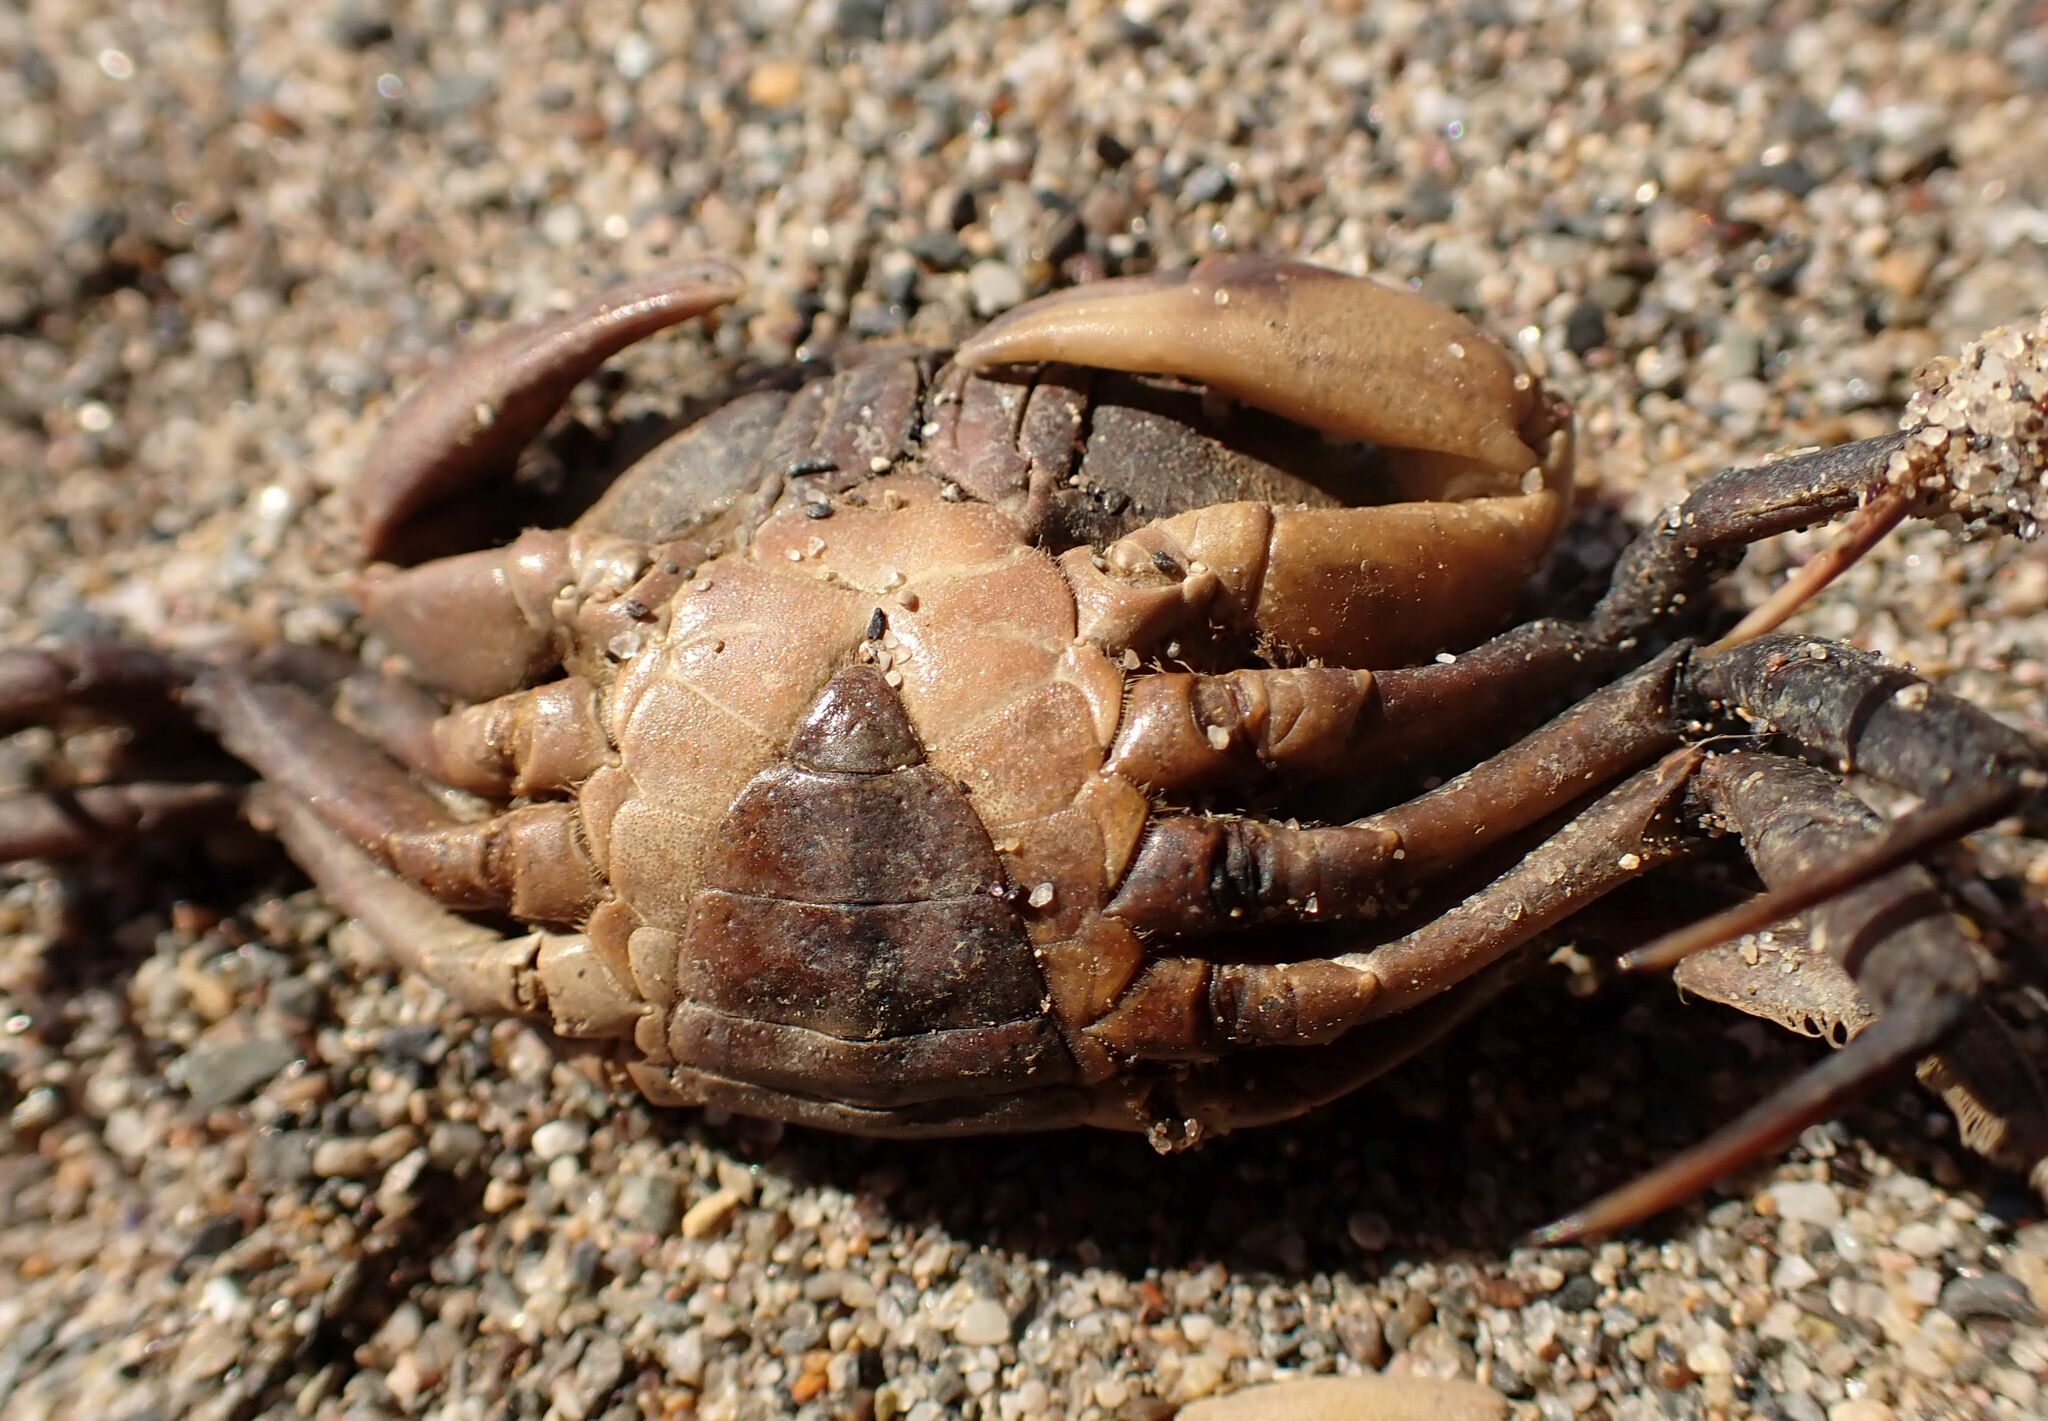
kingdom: Animalia
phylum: Arthropoda
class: Malacostraca
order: Decapoda
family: Carcinidae
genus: Carcinus
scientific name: Carcinus aestuarii
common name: Mediterranean green crab
